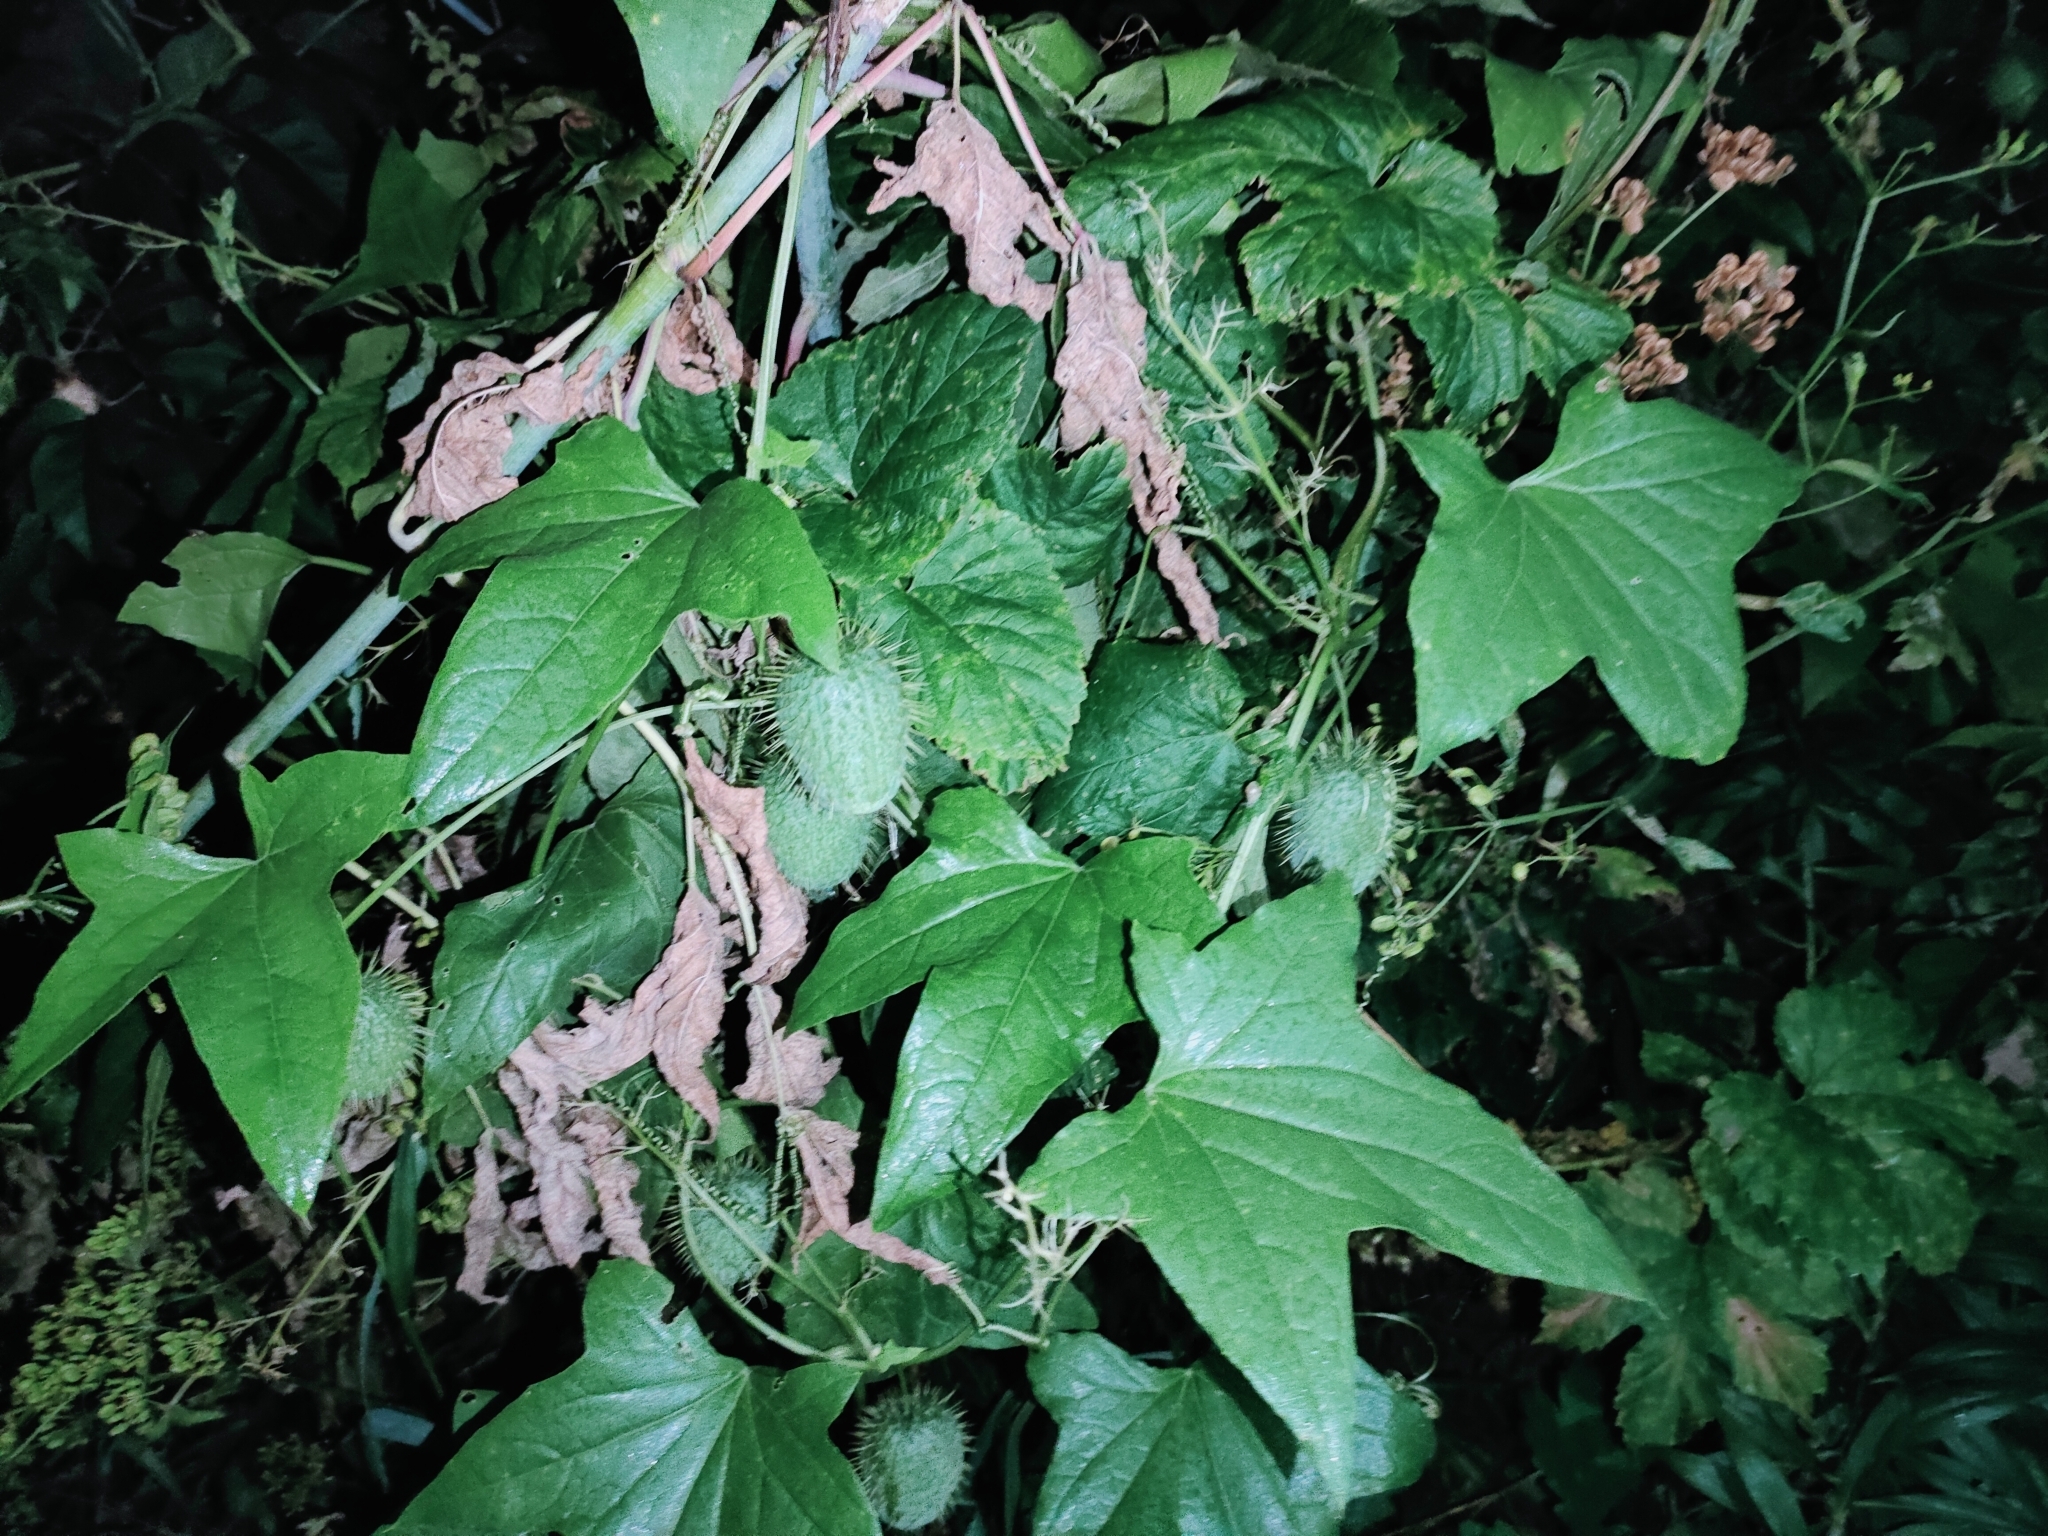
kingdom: Plantae
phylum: Tracheophyta
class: Magnoliopsida
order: Cucurbitales
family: Cucurbitaceae
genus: Echinocystis
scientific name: Echinocystis lobata
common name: Wild cucumber
